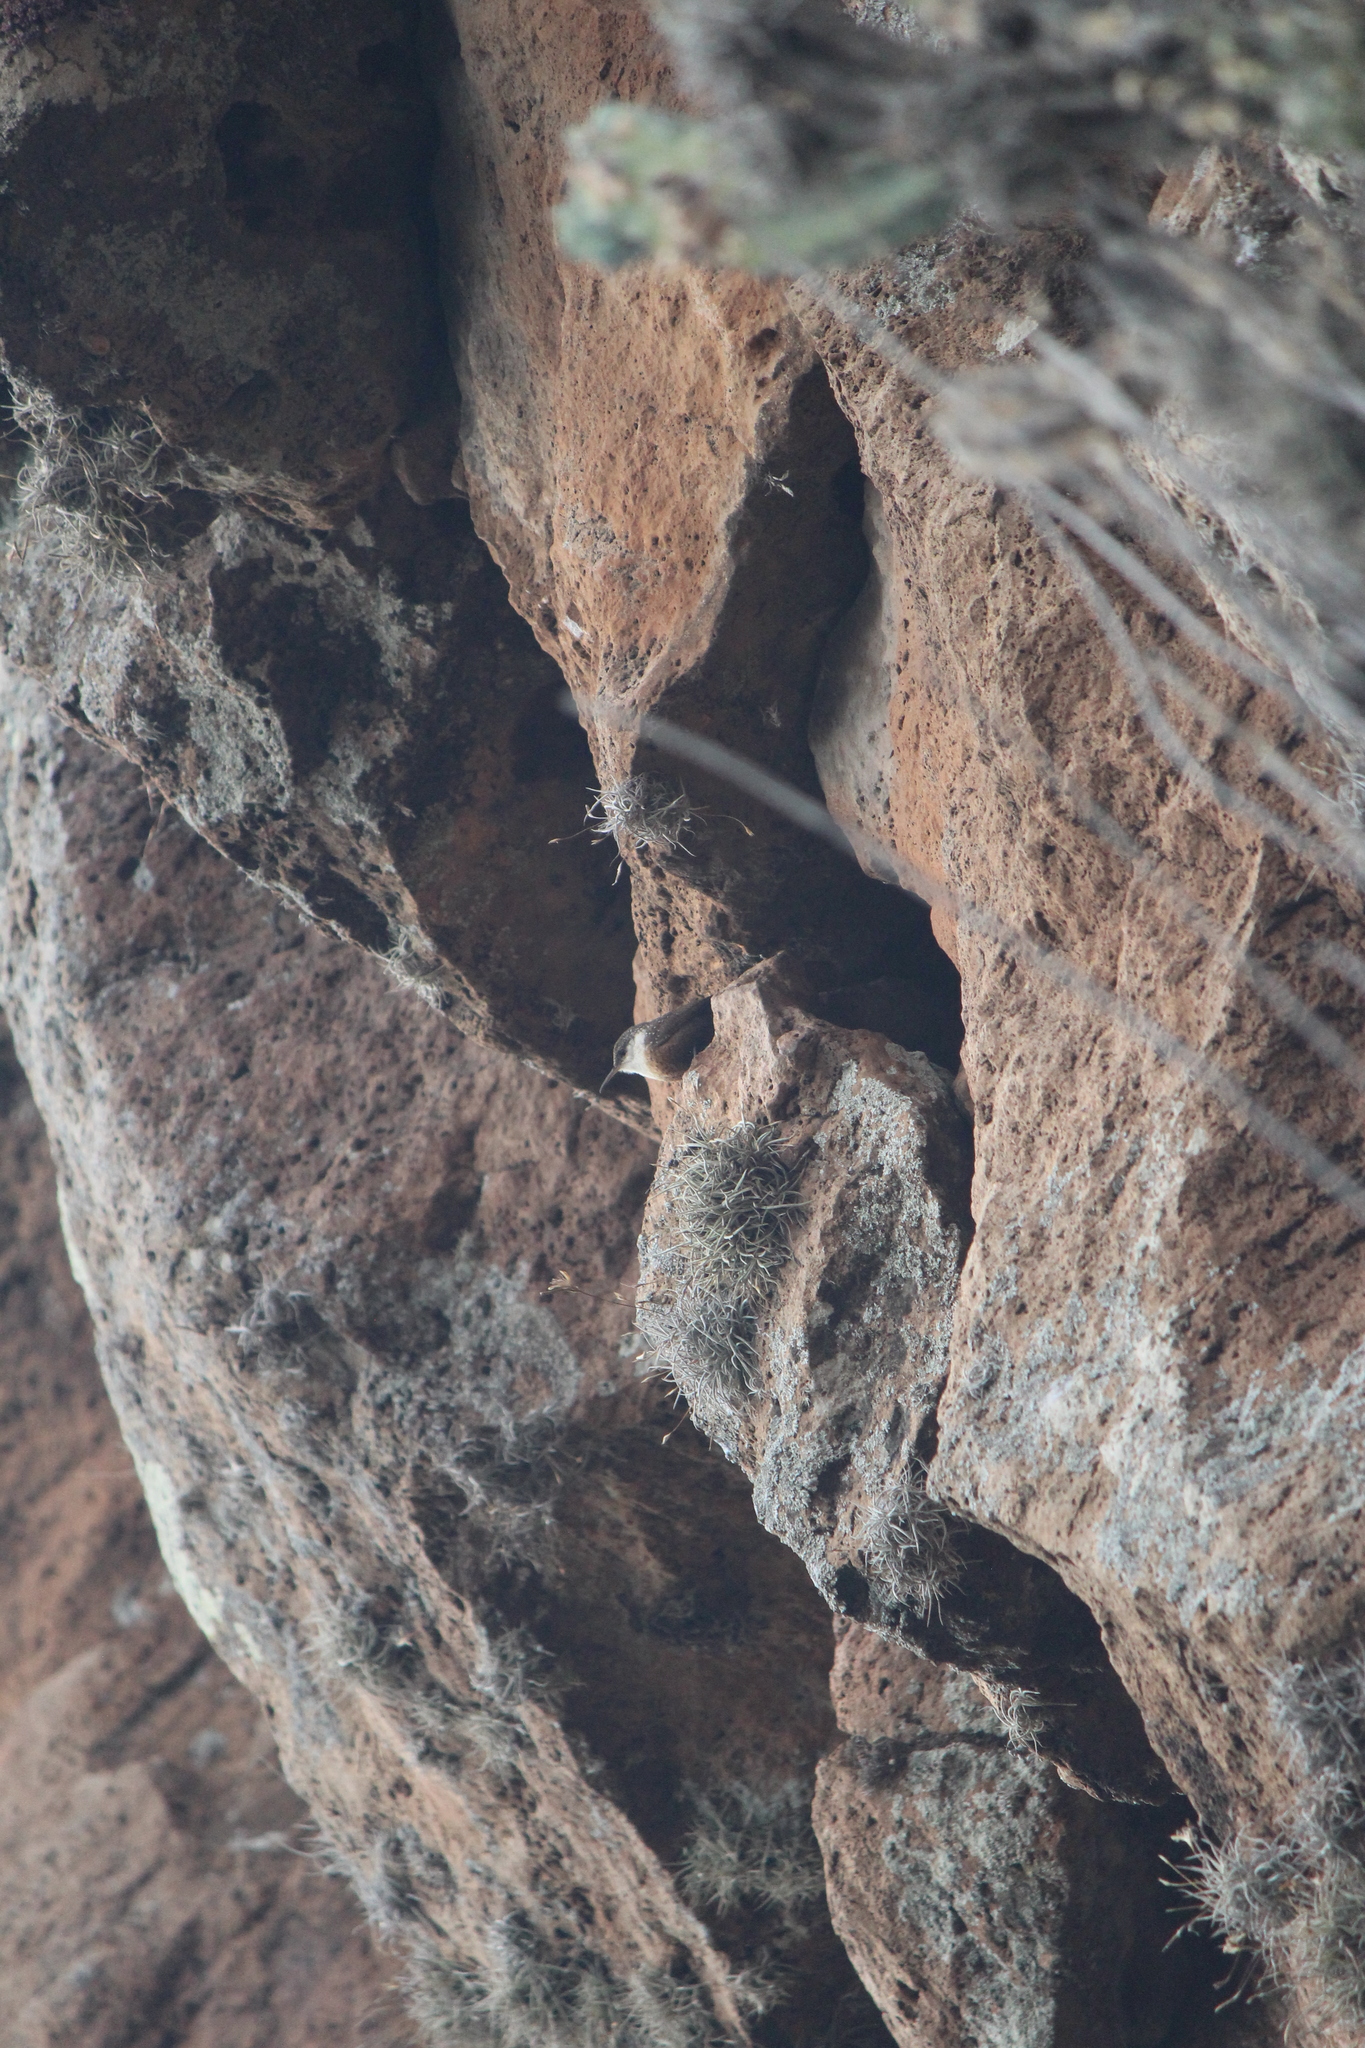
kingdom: Animalia
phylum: Chordata
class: Aves
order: Passeriformes
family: Troglodytidae
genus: Catherpes
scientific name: Catherpes mexicanus
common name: Canyon wren
